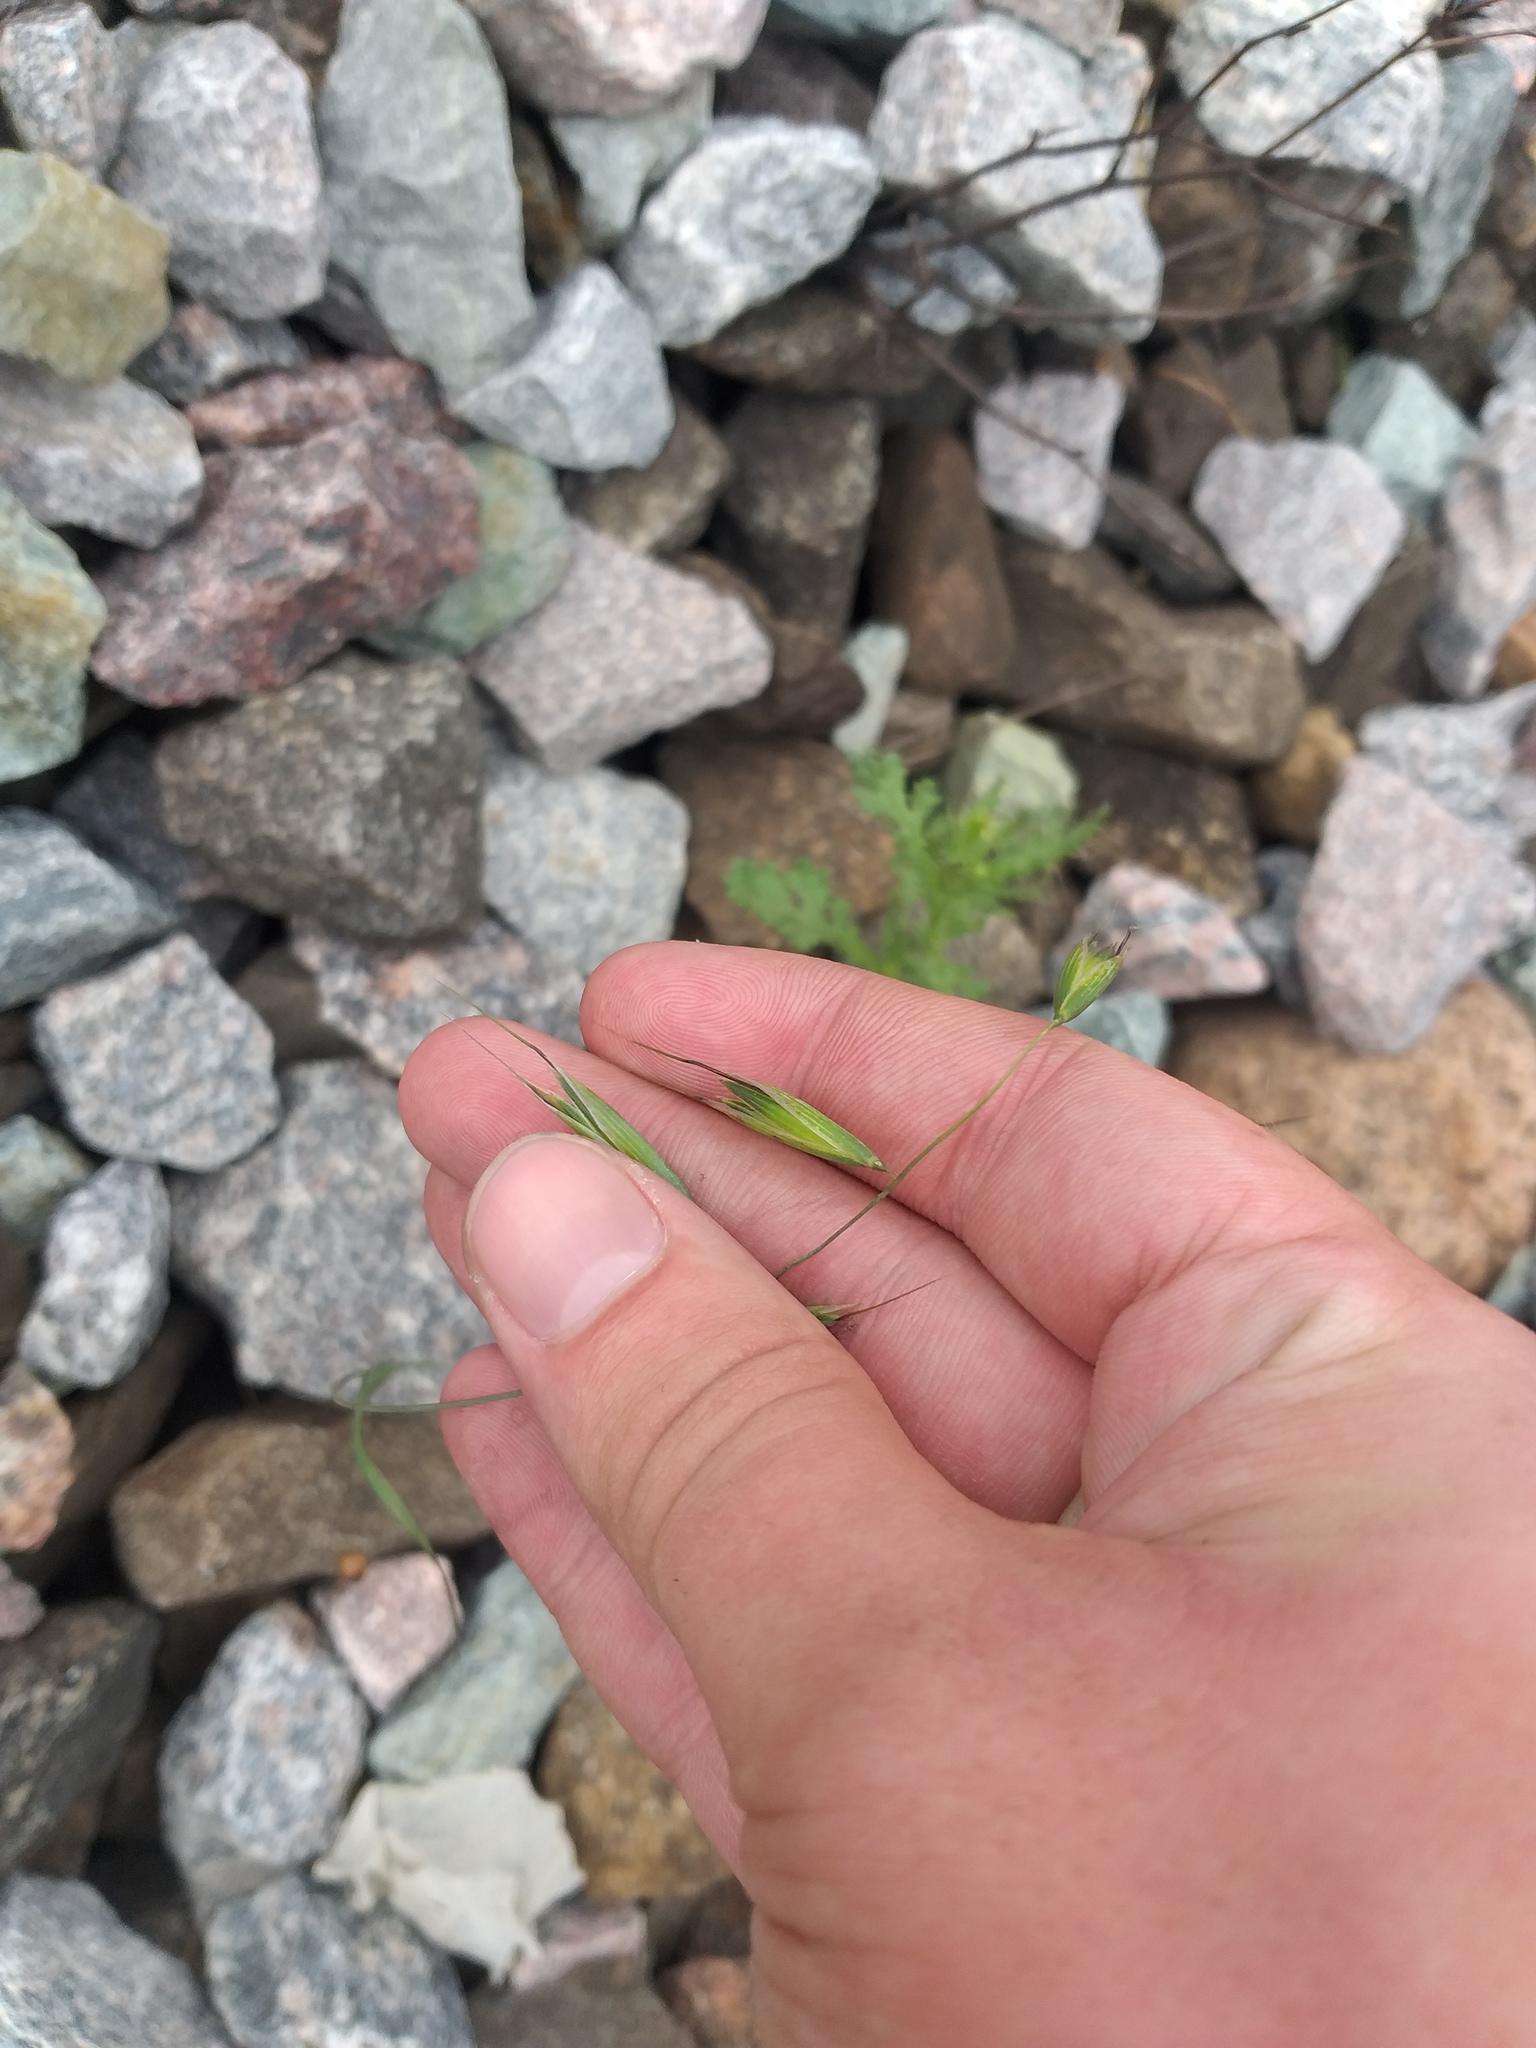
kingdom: Plantae
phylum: Tracheophyta
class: Liliopsida
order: Poales
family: Poaceae
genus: Avena
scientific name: Avena fatua
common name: Wild oat
